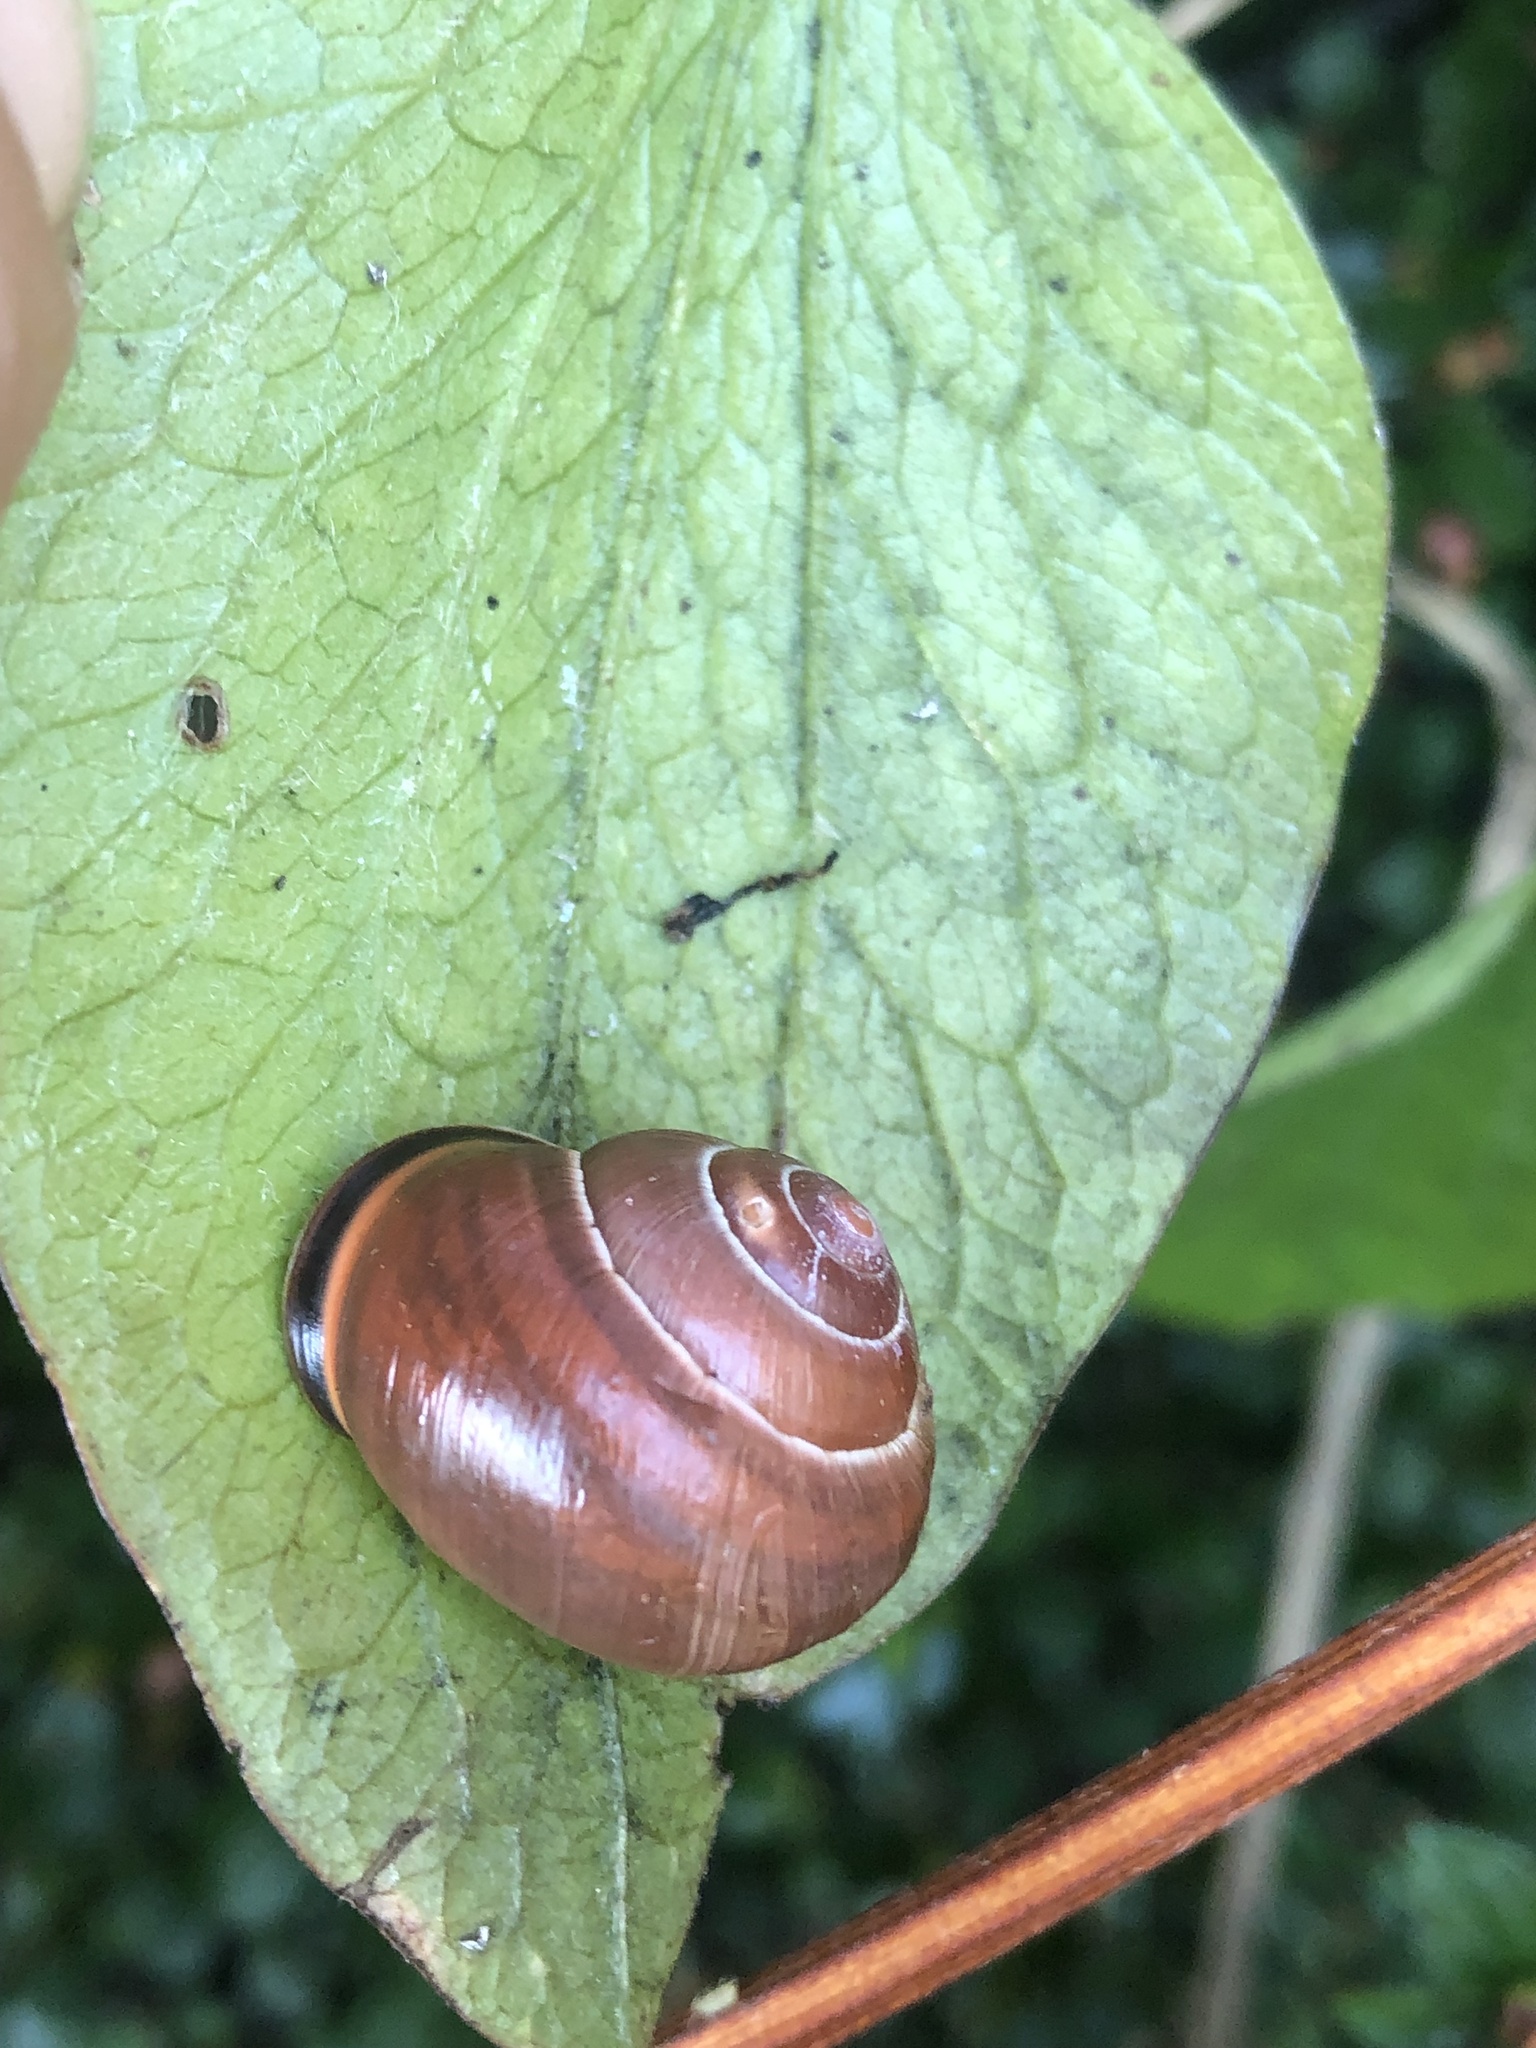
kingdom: Animalia
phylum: Mollusca
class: Gastropoda
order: Stylommatophora
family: Helicidae
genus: Cepaea
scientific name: Cepaea nemoralis
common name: Grovesnail
